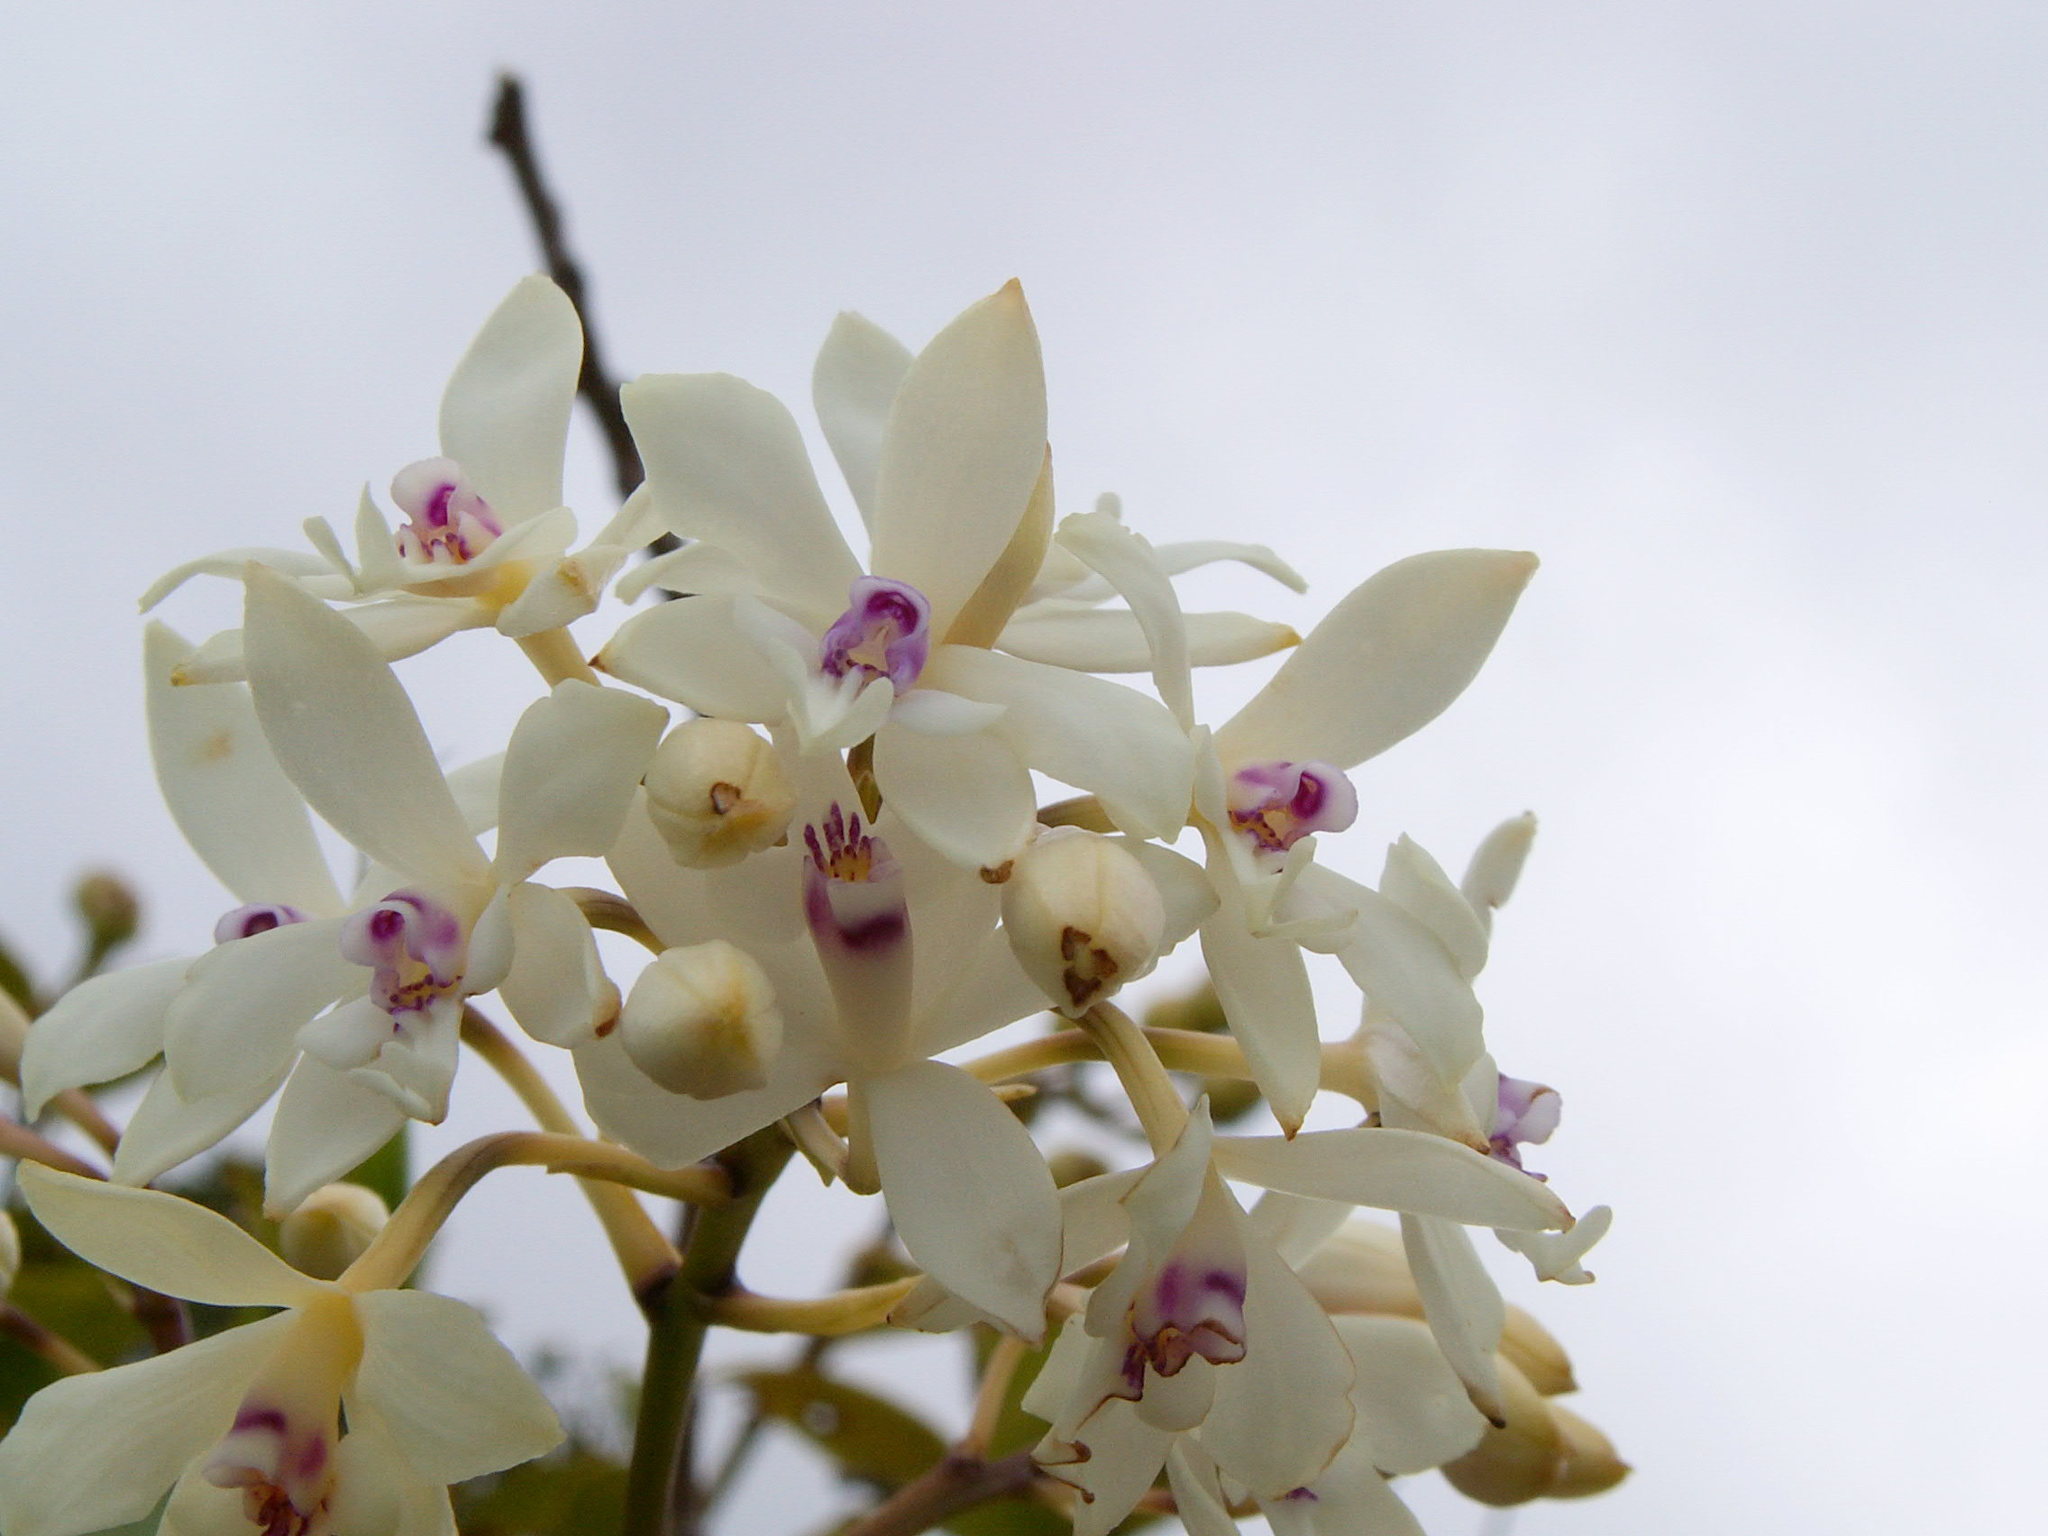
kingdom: Plantae
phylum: Tracheophyta
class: Liliopsida
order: Asparagales
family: Orchidaceae
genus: Epidendrum
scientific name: Epidendrum patens
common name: West indian star orchid
